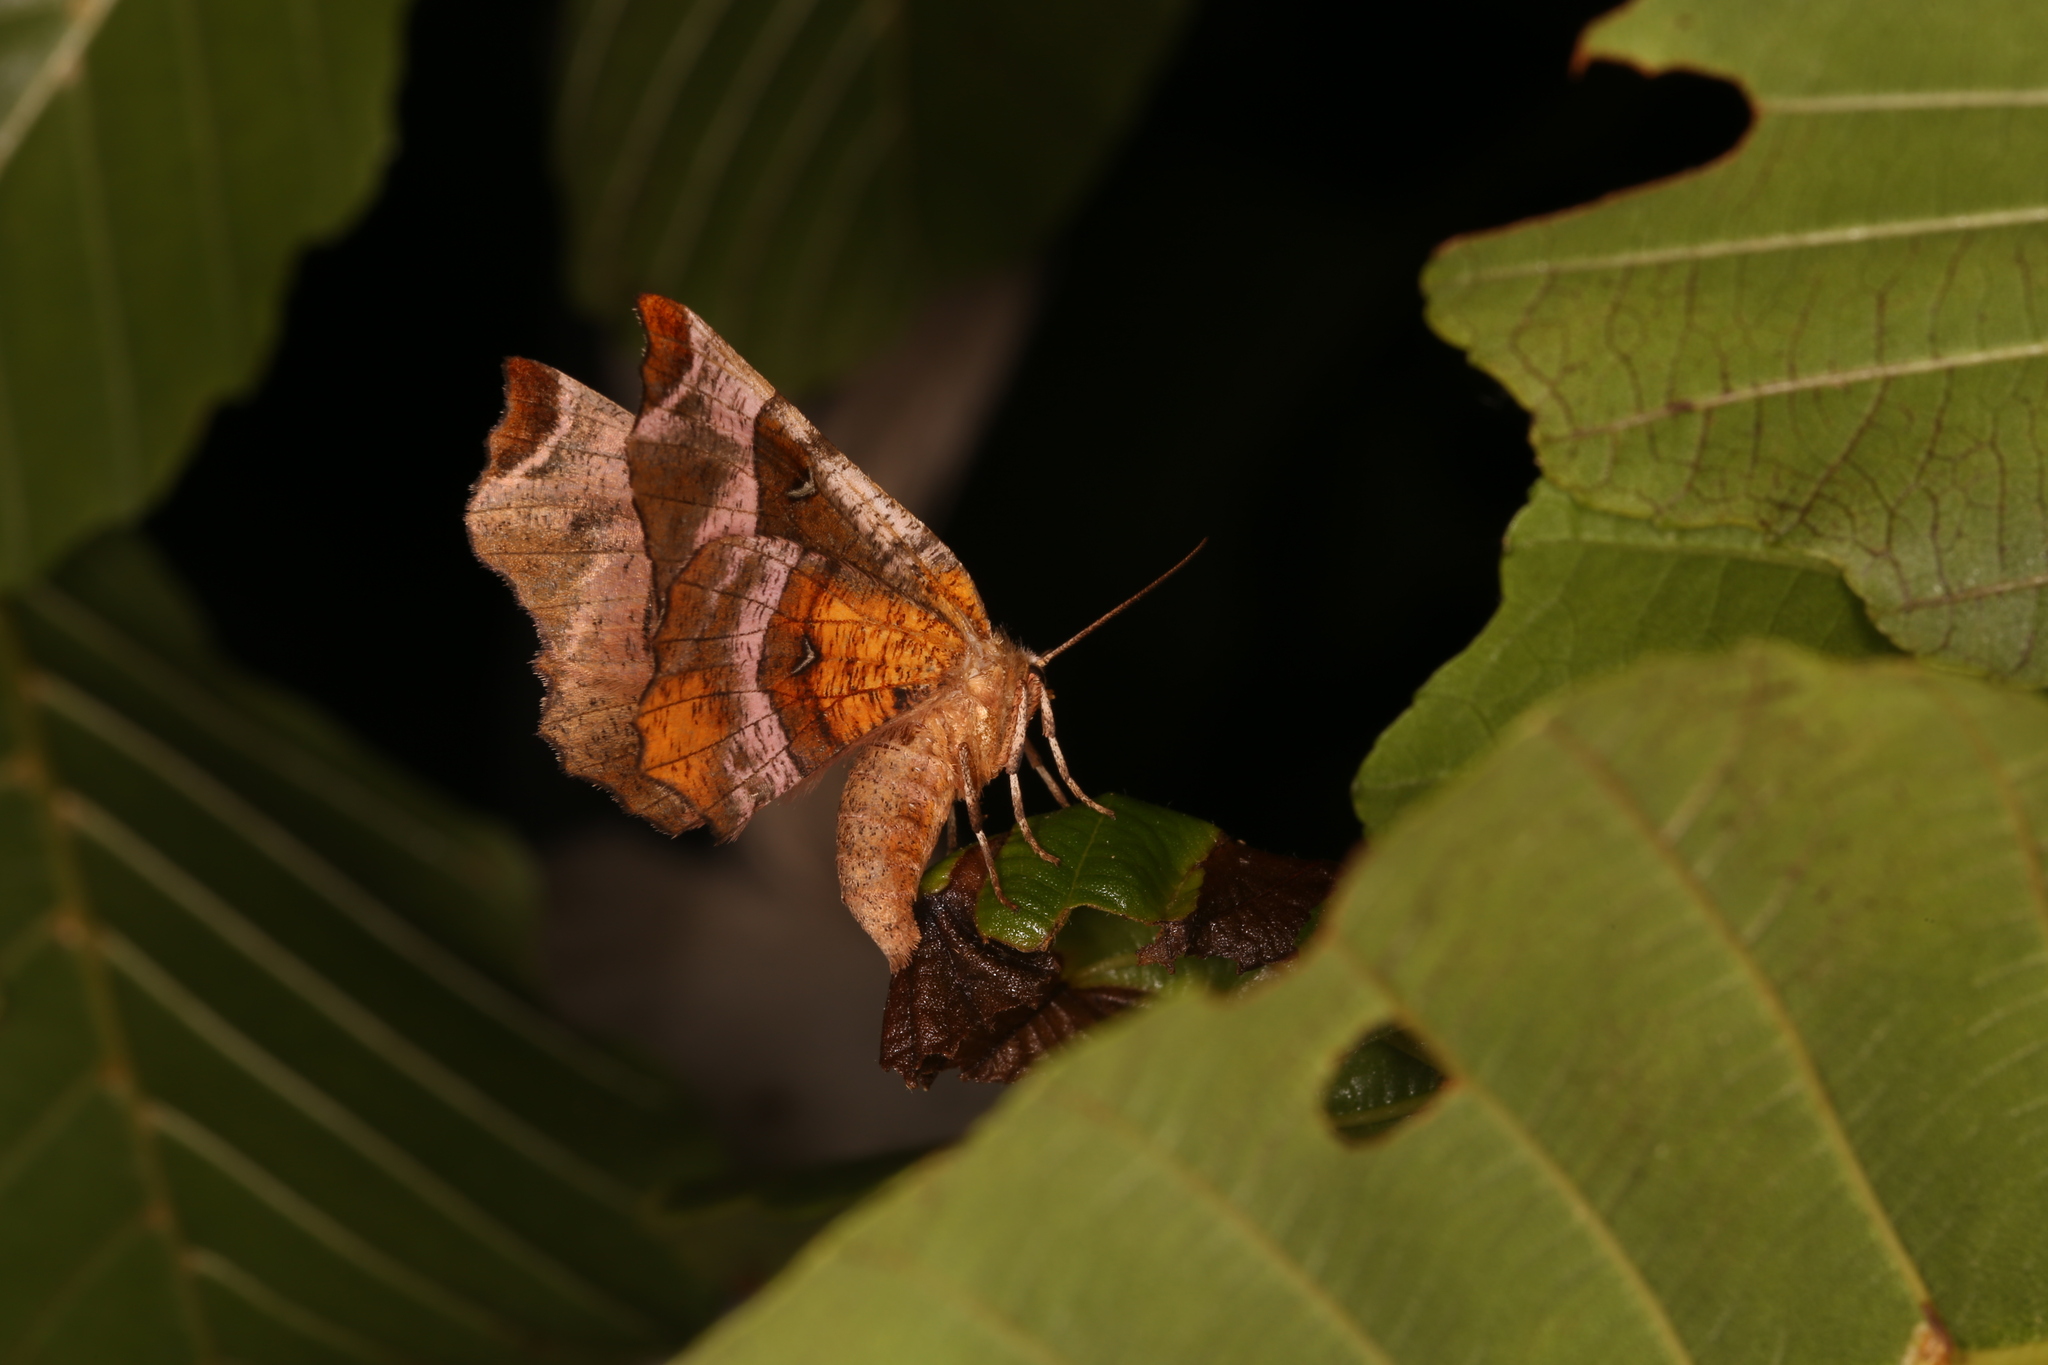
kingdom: Animalia
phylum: Arthropoda
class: Insecta
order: Lepidoptera
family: Geometridae
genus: Selenia
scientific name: Selenia tetralunaria
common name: Purple thorn
